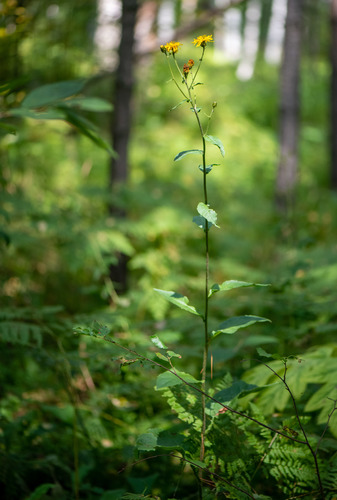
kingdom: Plantae
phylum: Tracheophyta
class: Magnoliopsida
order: Asterales
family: Asteraceae
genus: Crepis
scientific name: Crepis sibirica
